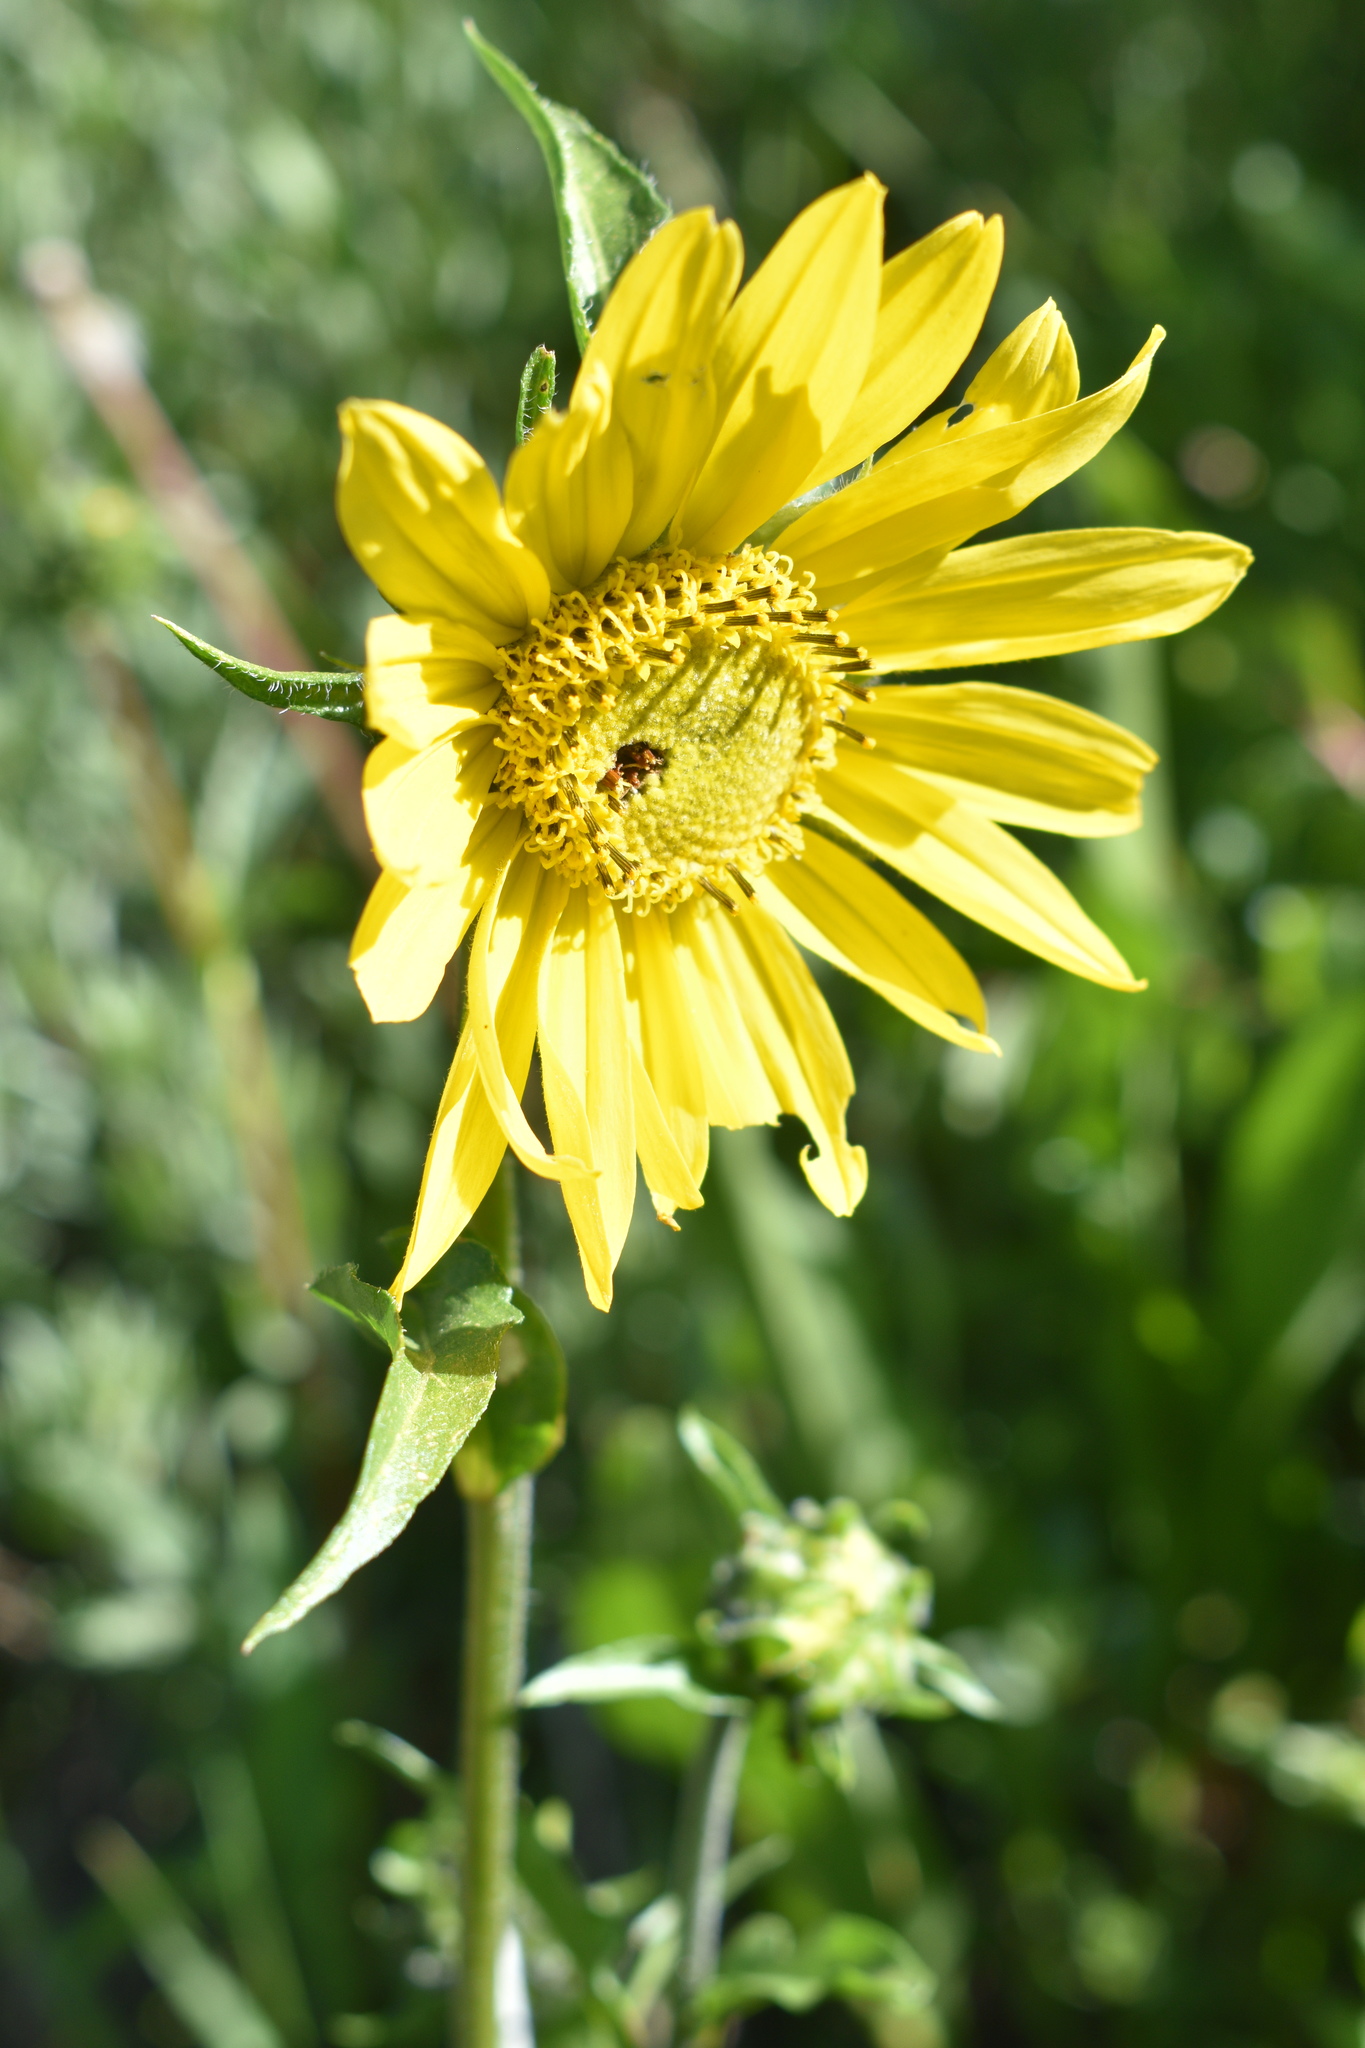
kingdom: Plantae
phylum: Tracheophyta
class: Magnoliopsida
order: Asterales
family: Asteraceae
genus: Helianthella
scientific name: Helianthella quinquenervis
